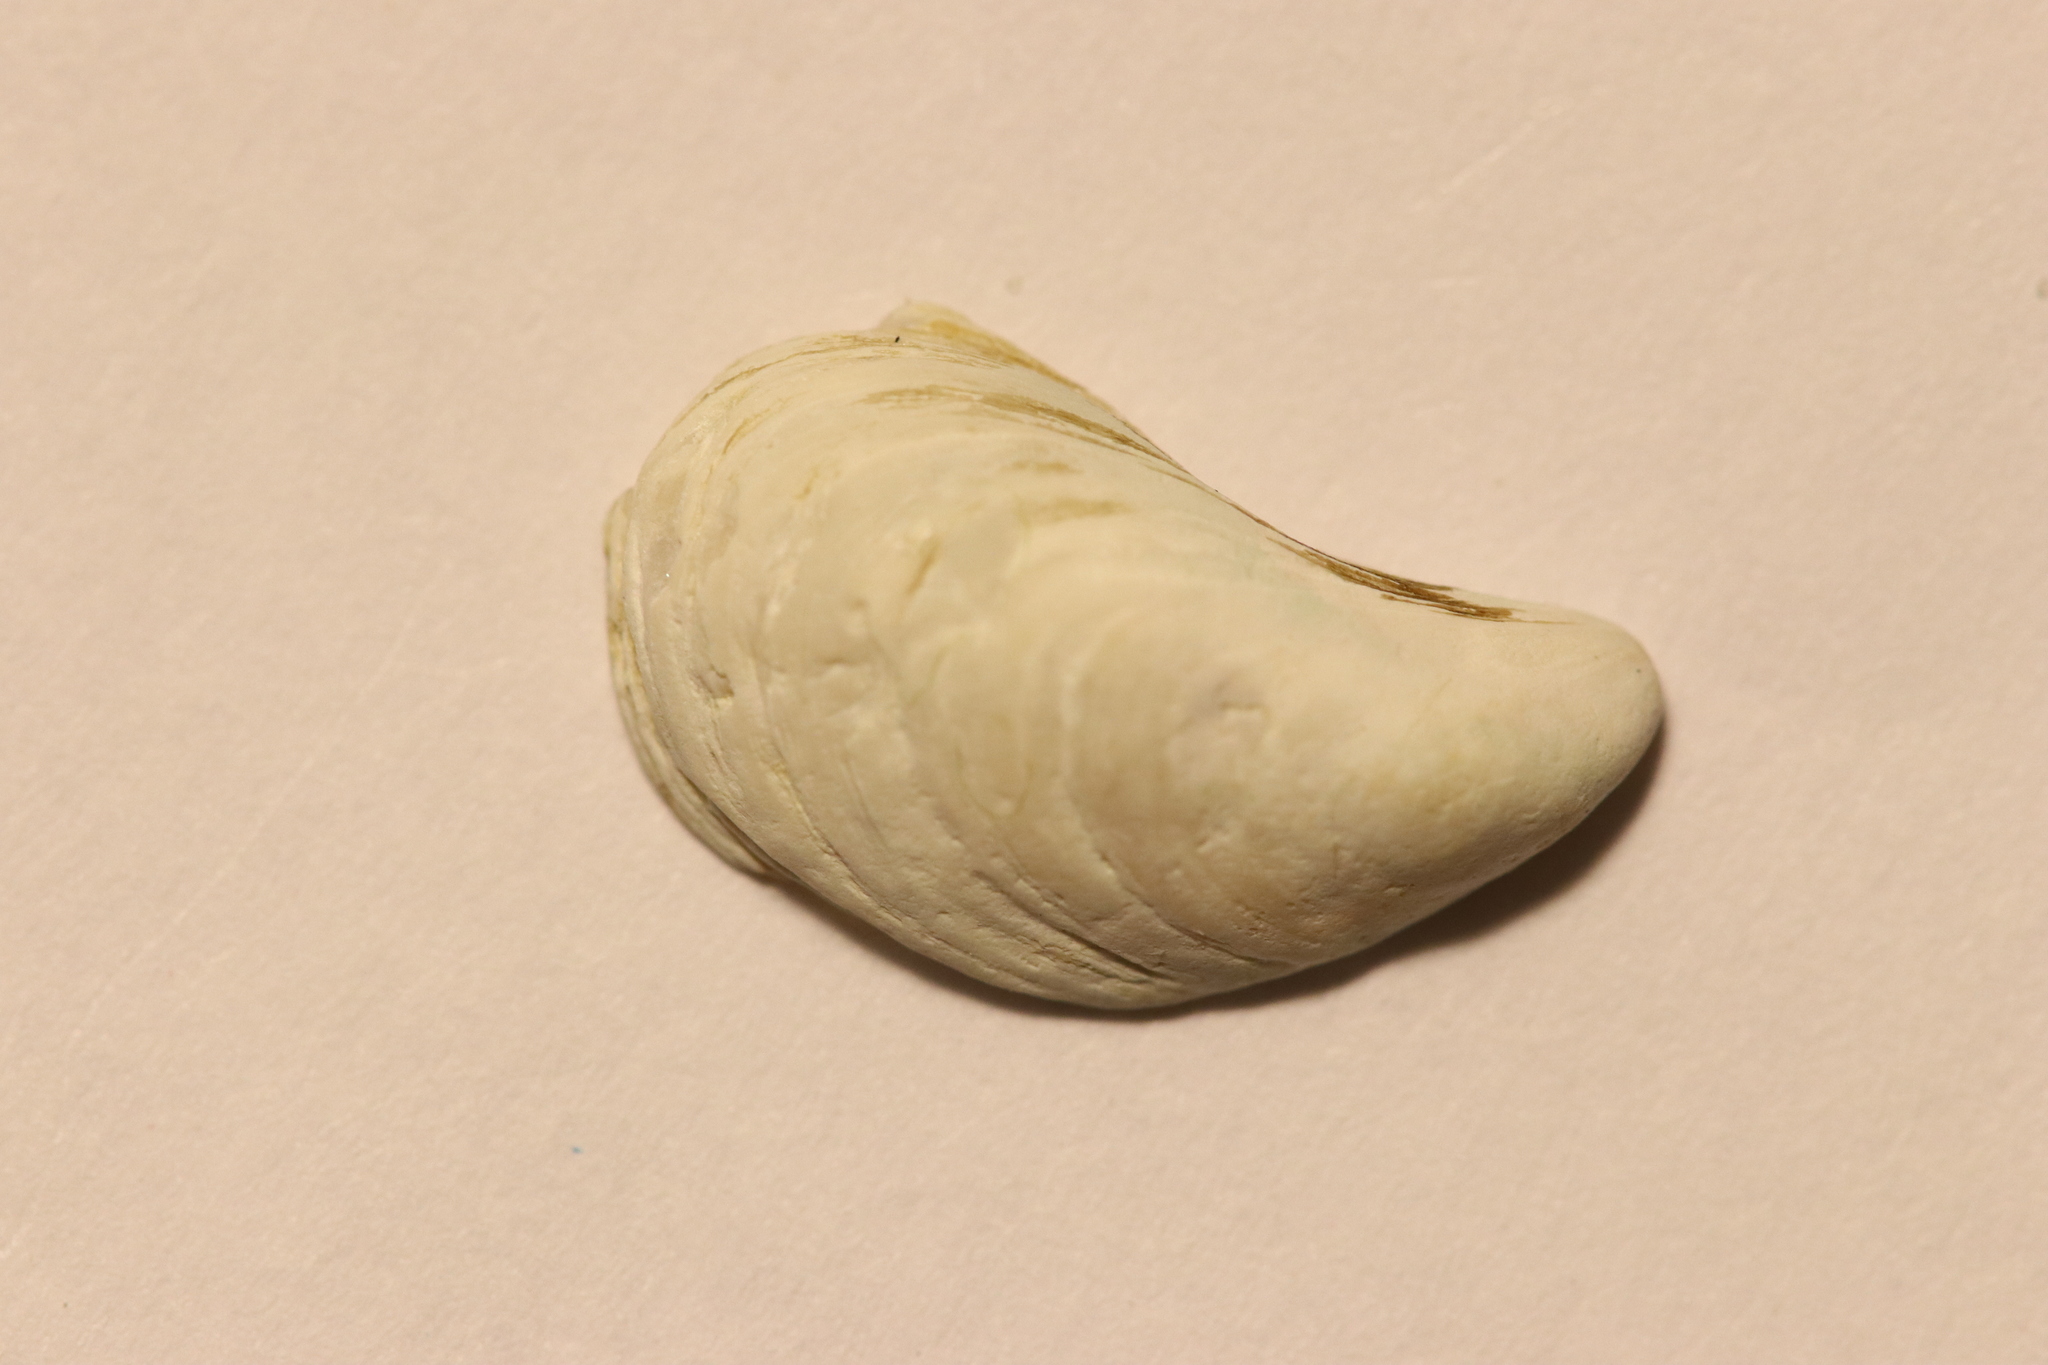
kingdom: Animalia
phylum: Mollusca
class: Bivalvia
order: Myida
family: Dreissenidae
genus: Dreissena
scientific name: Dreissena bugensis
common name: Quagga mussel
